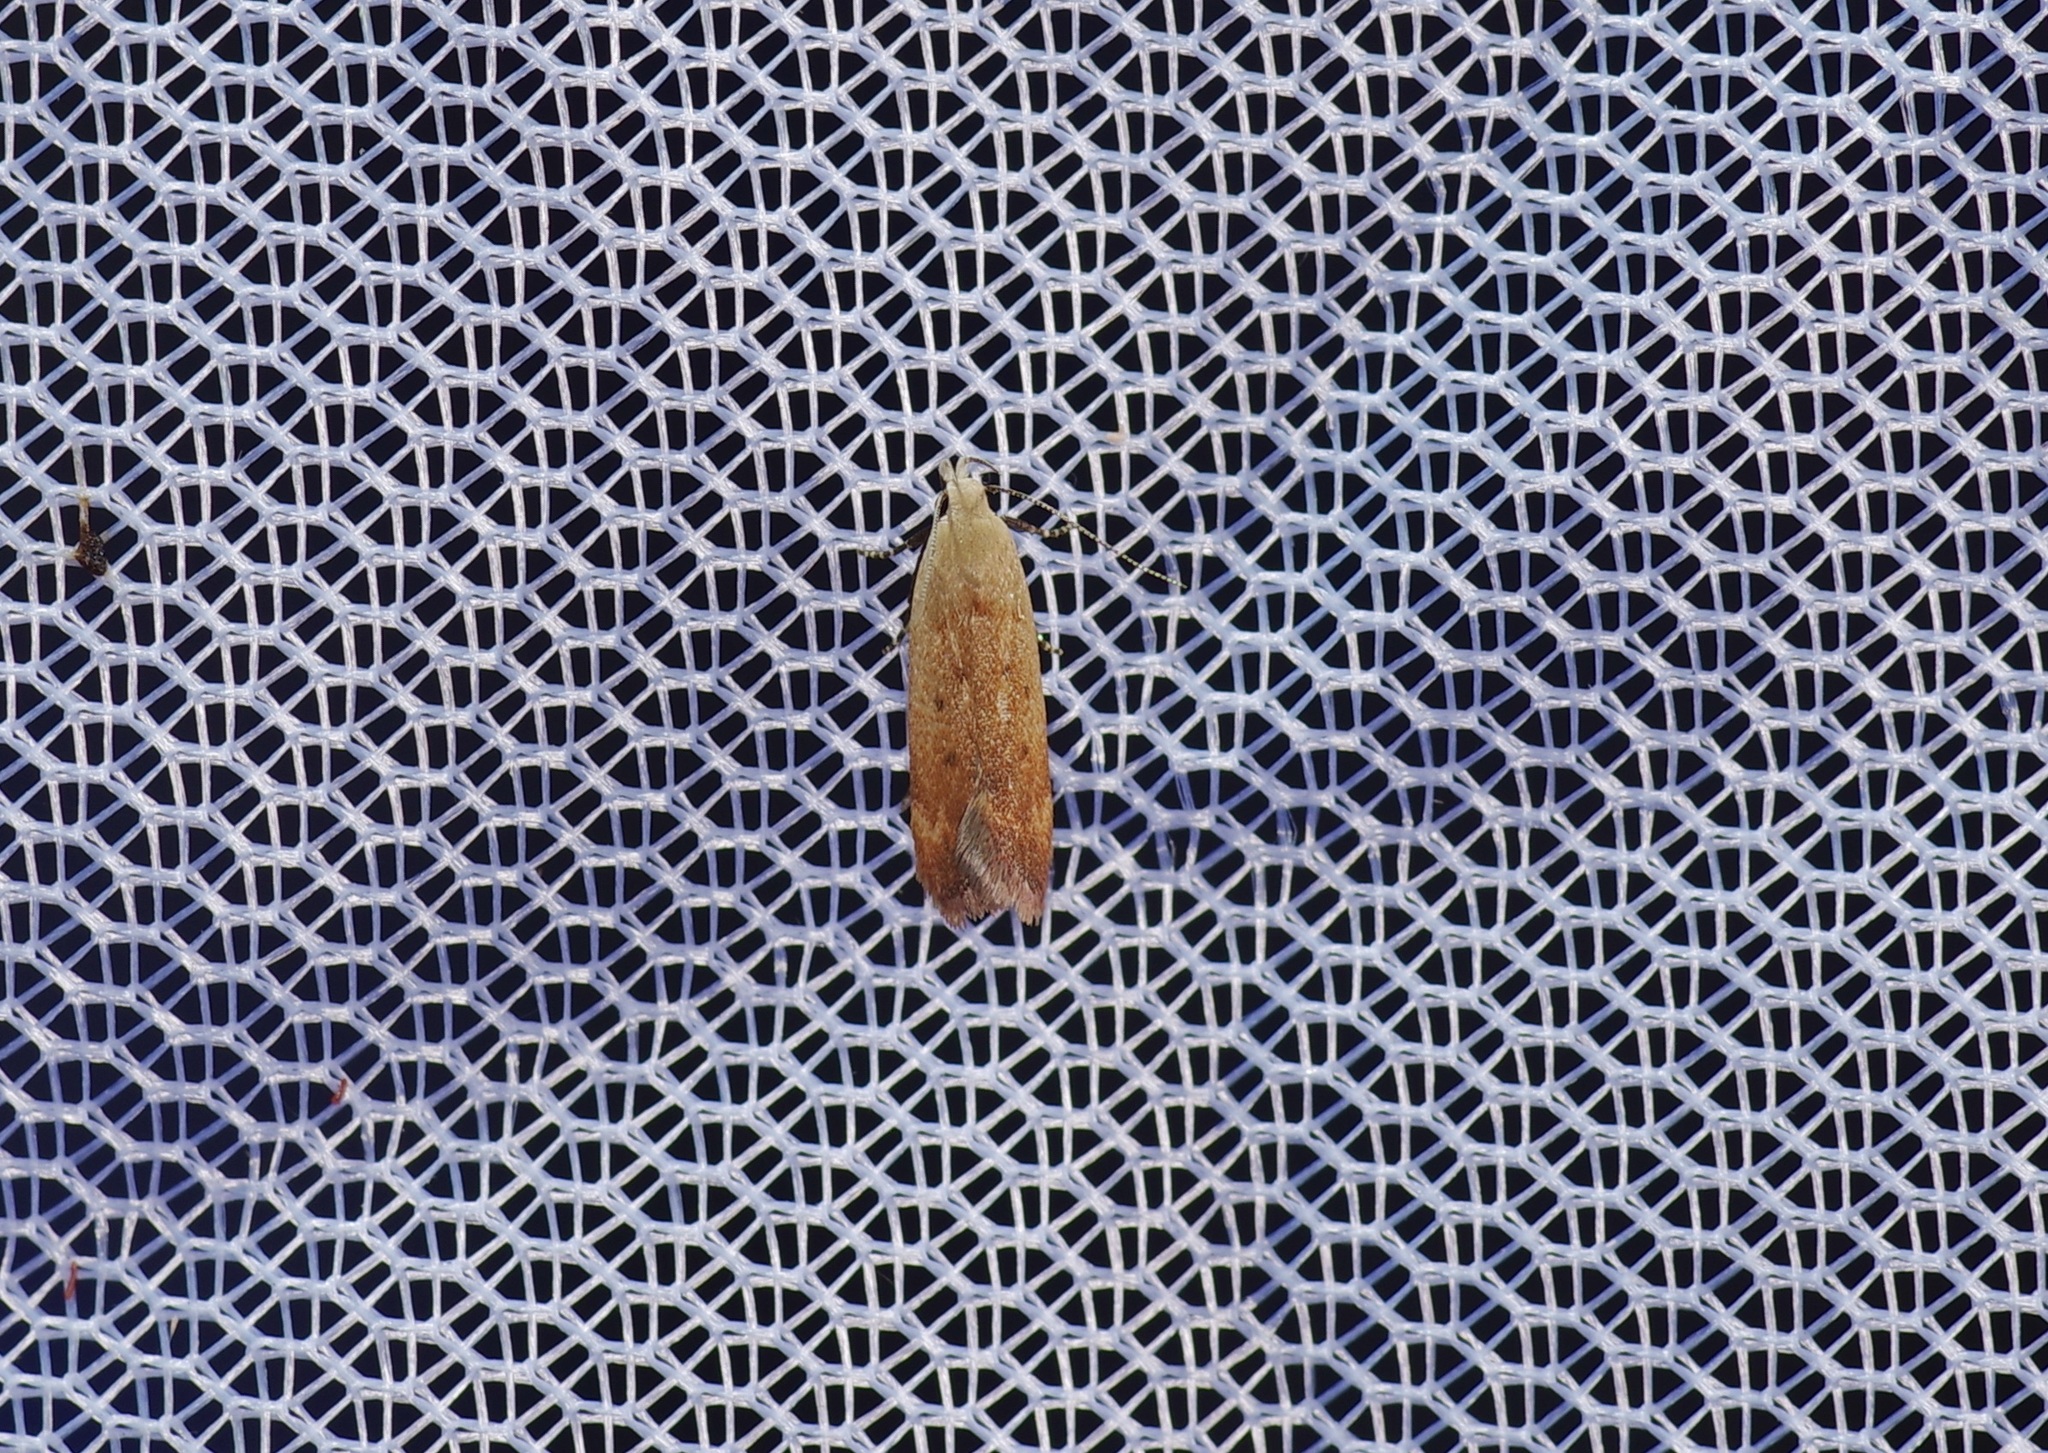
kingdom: Animalia
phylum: Arthropoda
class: Insecta
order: Lepidoptera
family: Gelechiidae
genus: Anacampsis
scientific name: Anacampsis fullonella
